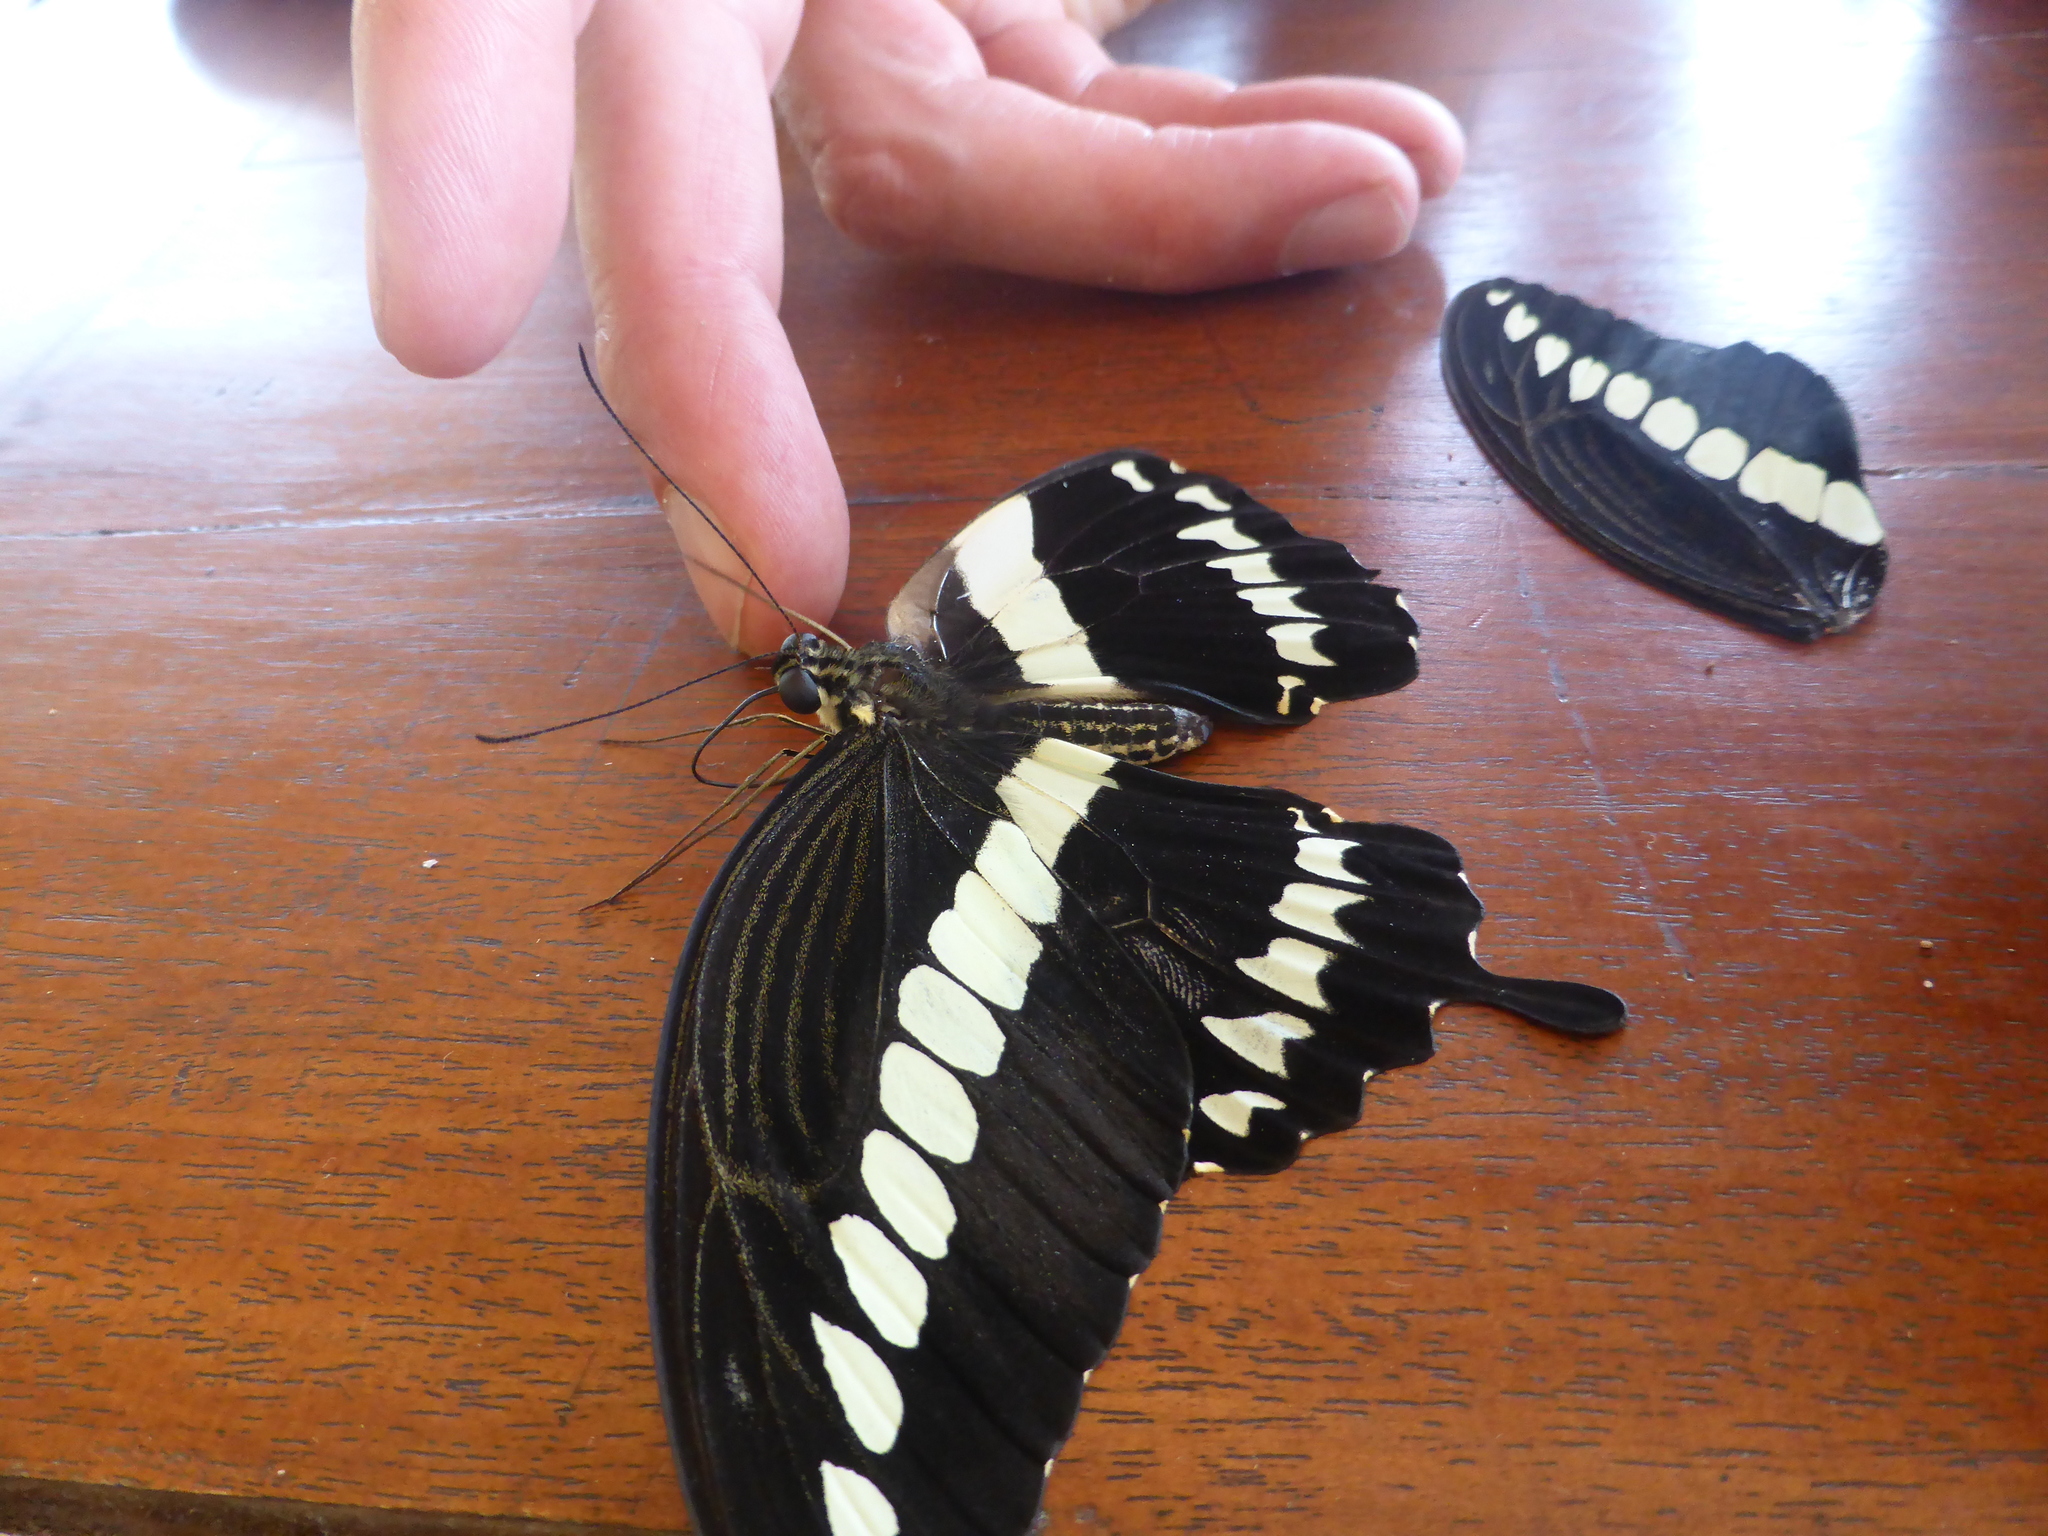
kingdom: Animalia
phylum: Arthropoda
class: Insecta
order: Lepidoptera
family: Papilionidae
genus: Papilio
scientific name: Papilio gigon
